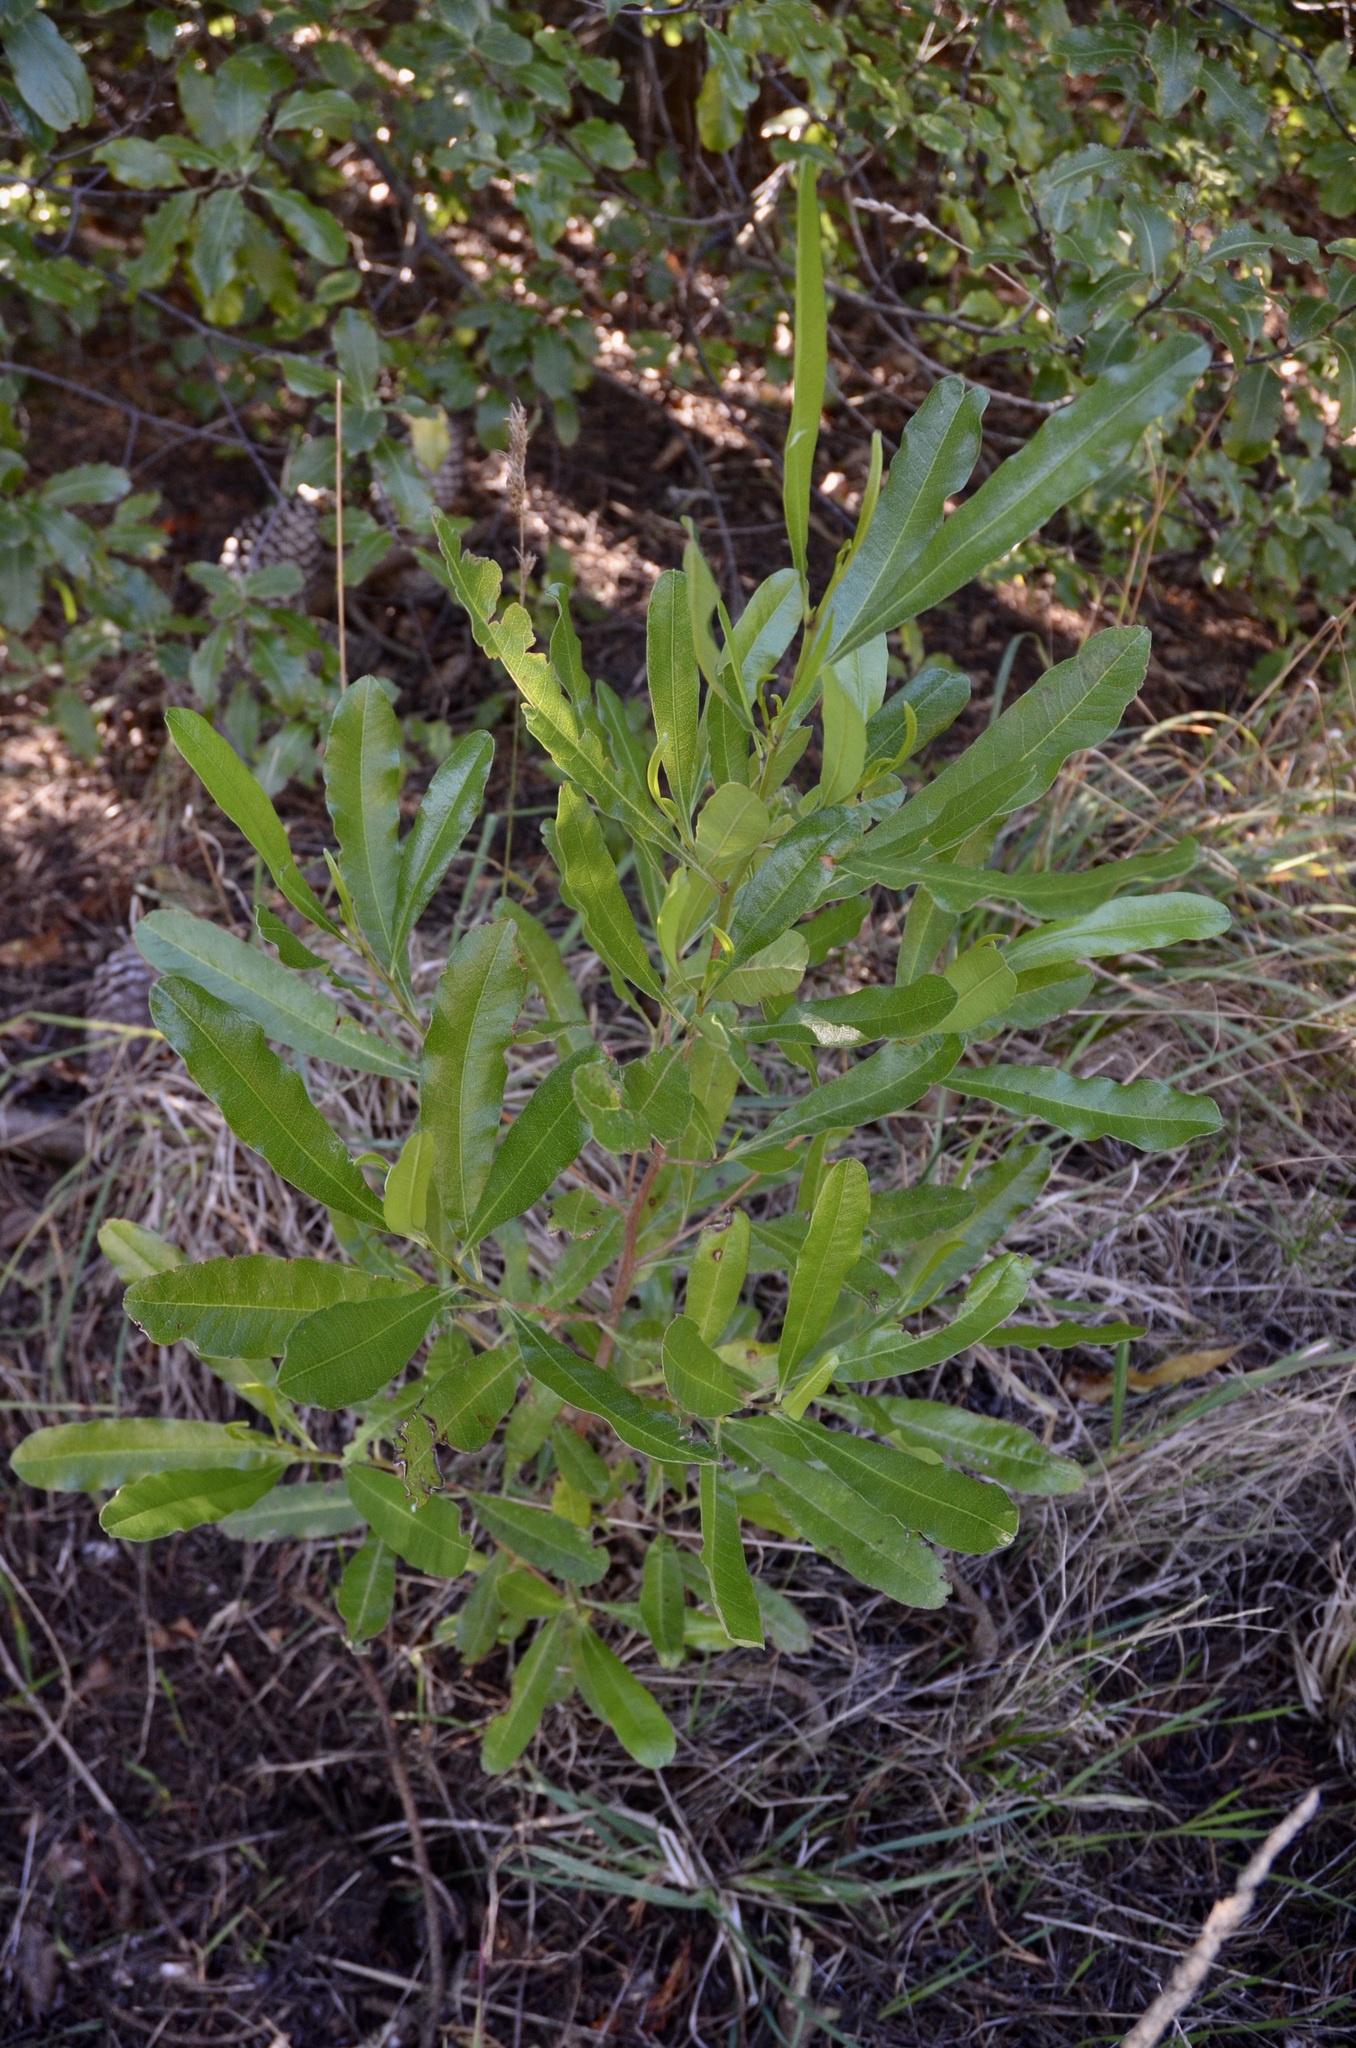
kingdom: Plantae
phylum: Tracheophyta
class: Magnoliopsida
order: Sapindales
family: Sapindaceae
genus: Dodonaea
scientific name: Dodonaea viscosa
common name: Hopbush
